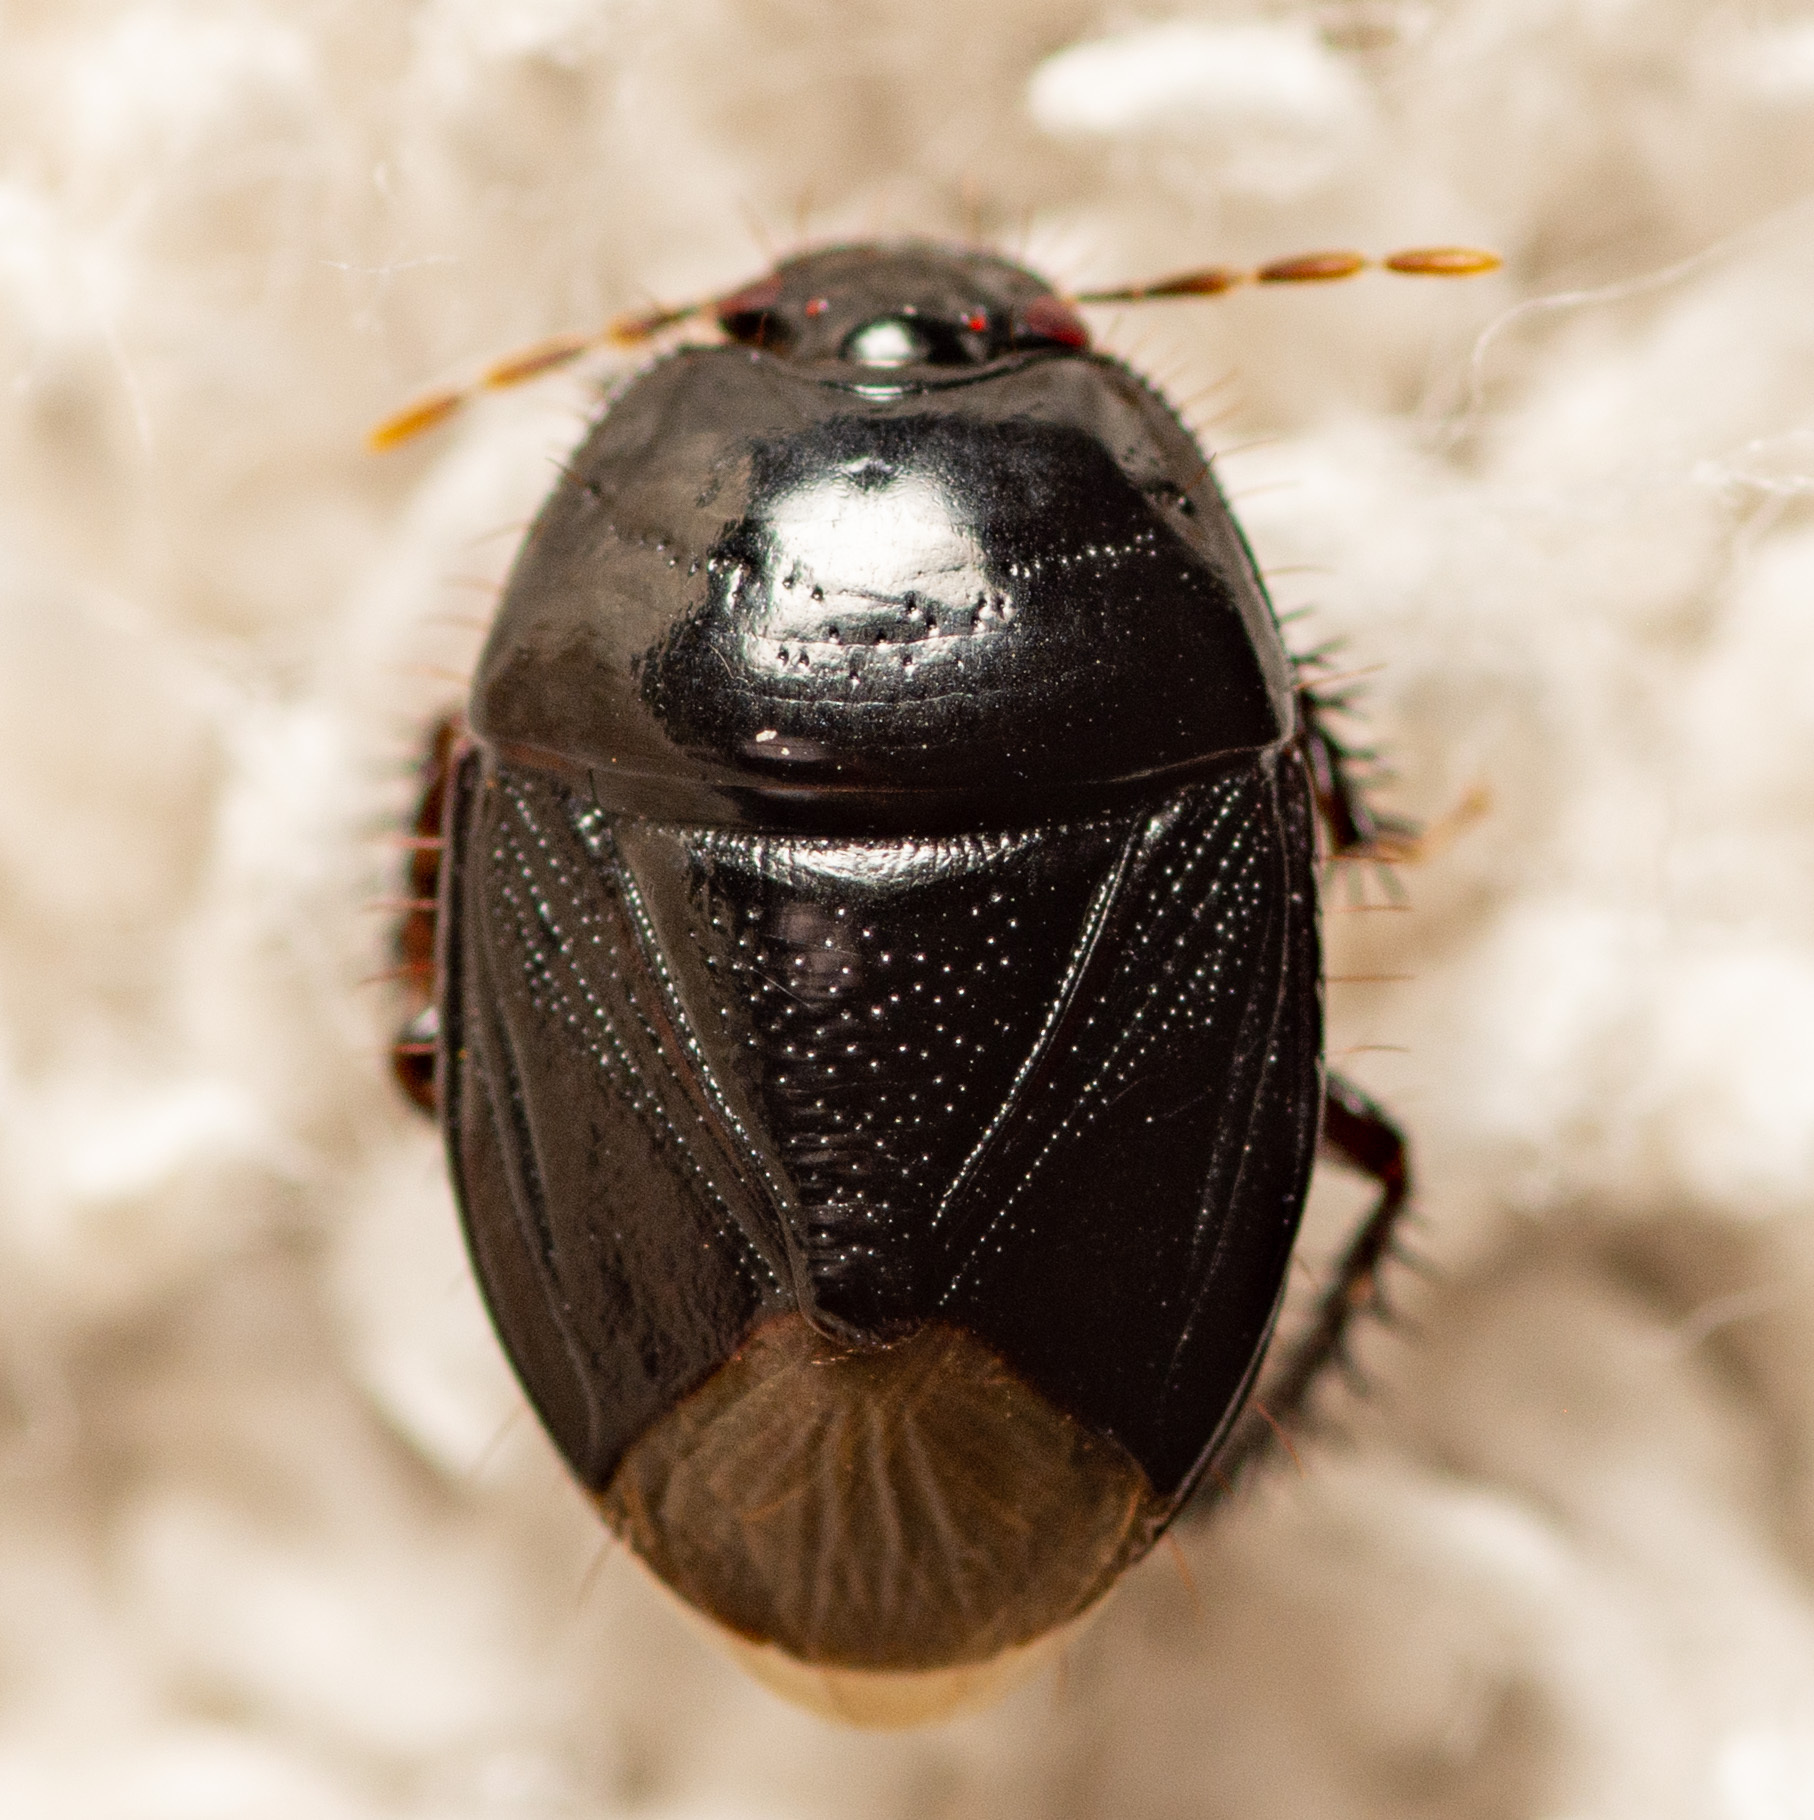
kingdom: Animalia
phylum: Arthropoda
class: Insecta
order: Hemiptera
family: Cydnidae
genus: Pangaeus
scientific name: Pangaeus bilineatus
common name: Burrower bug
